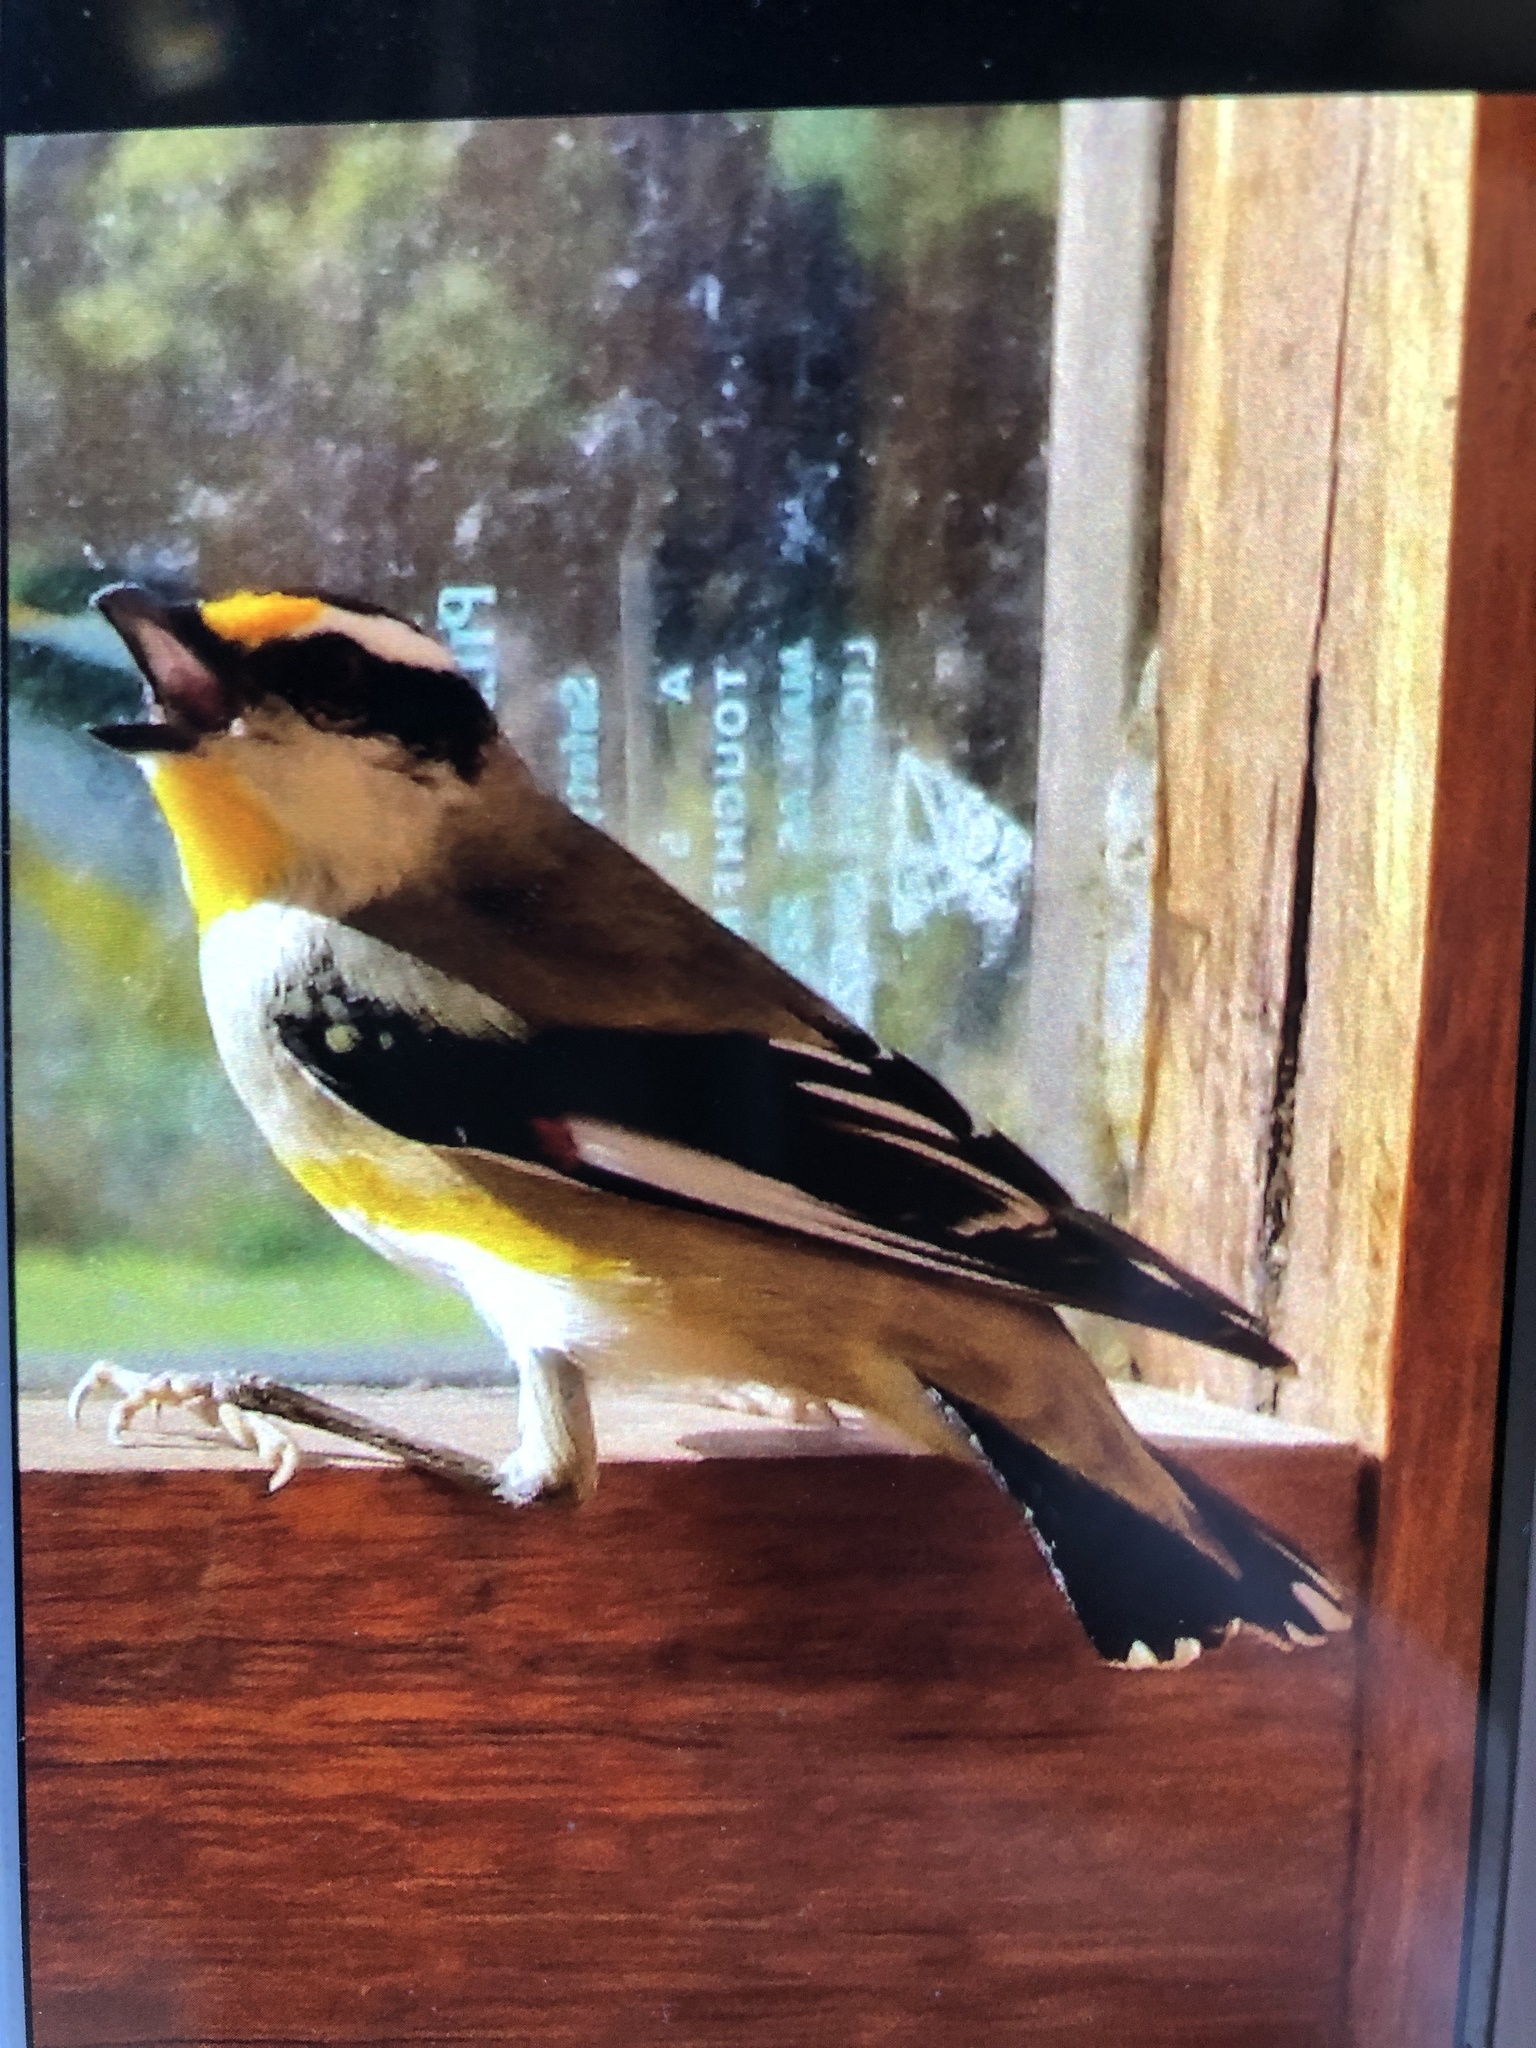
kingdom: Animalia
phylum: Chordata
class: Aves
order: Passeriformes
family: Pardalotidae
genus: Pardalotus
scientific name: Pardalotus striatus
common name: Striated pardalote
